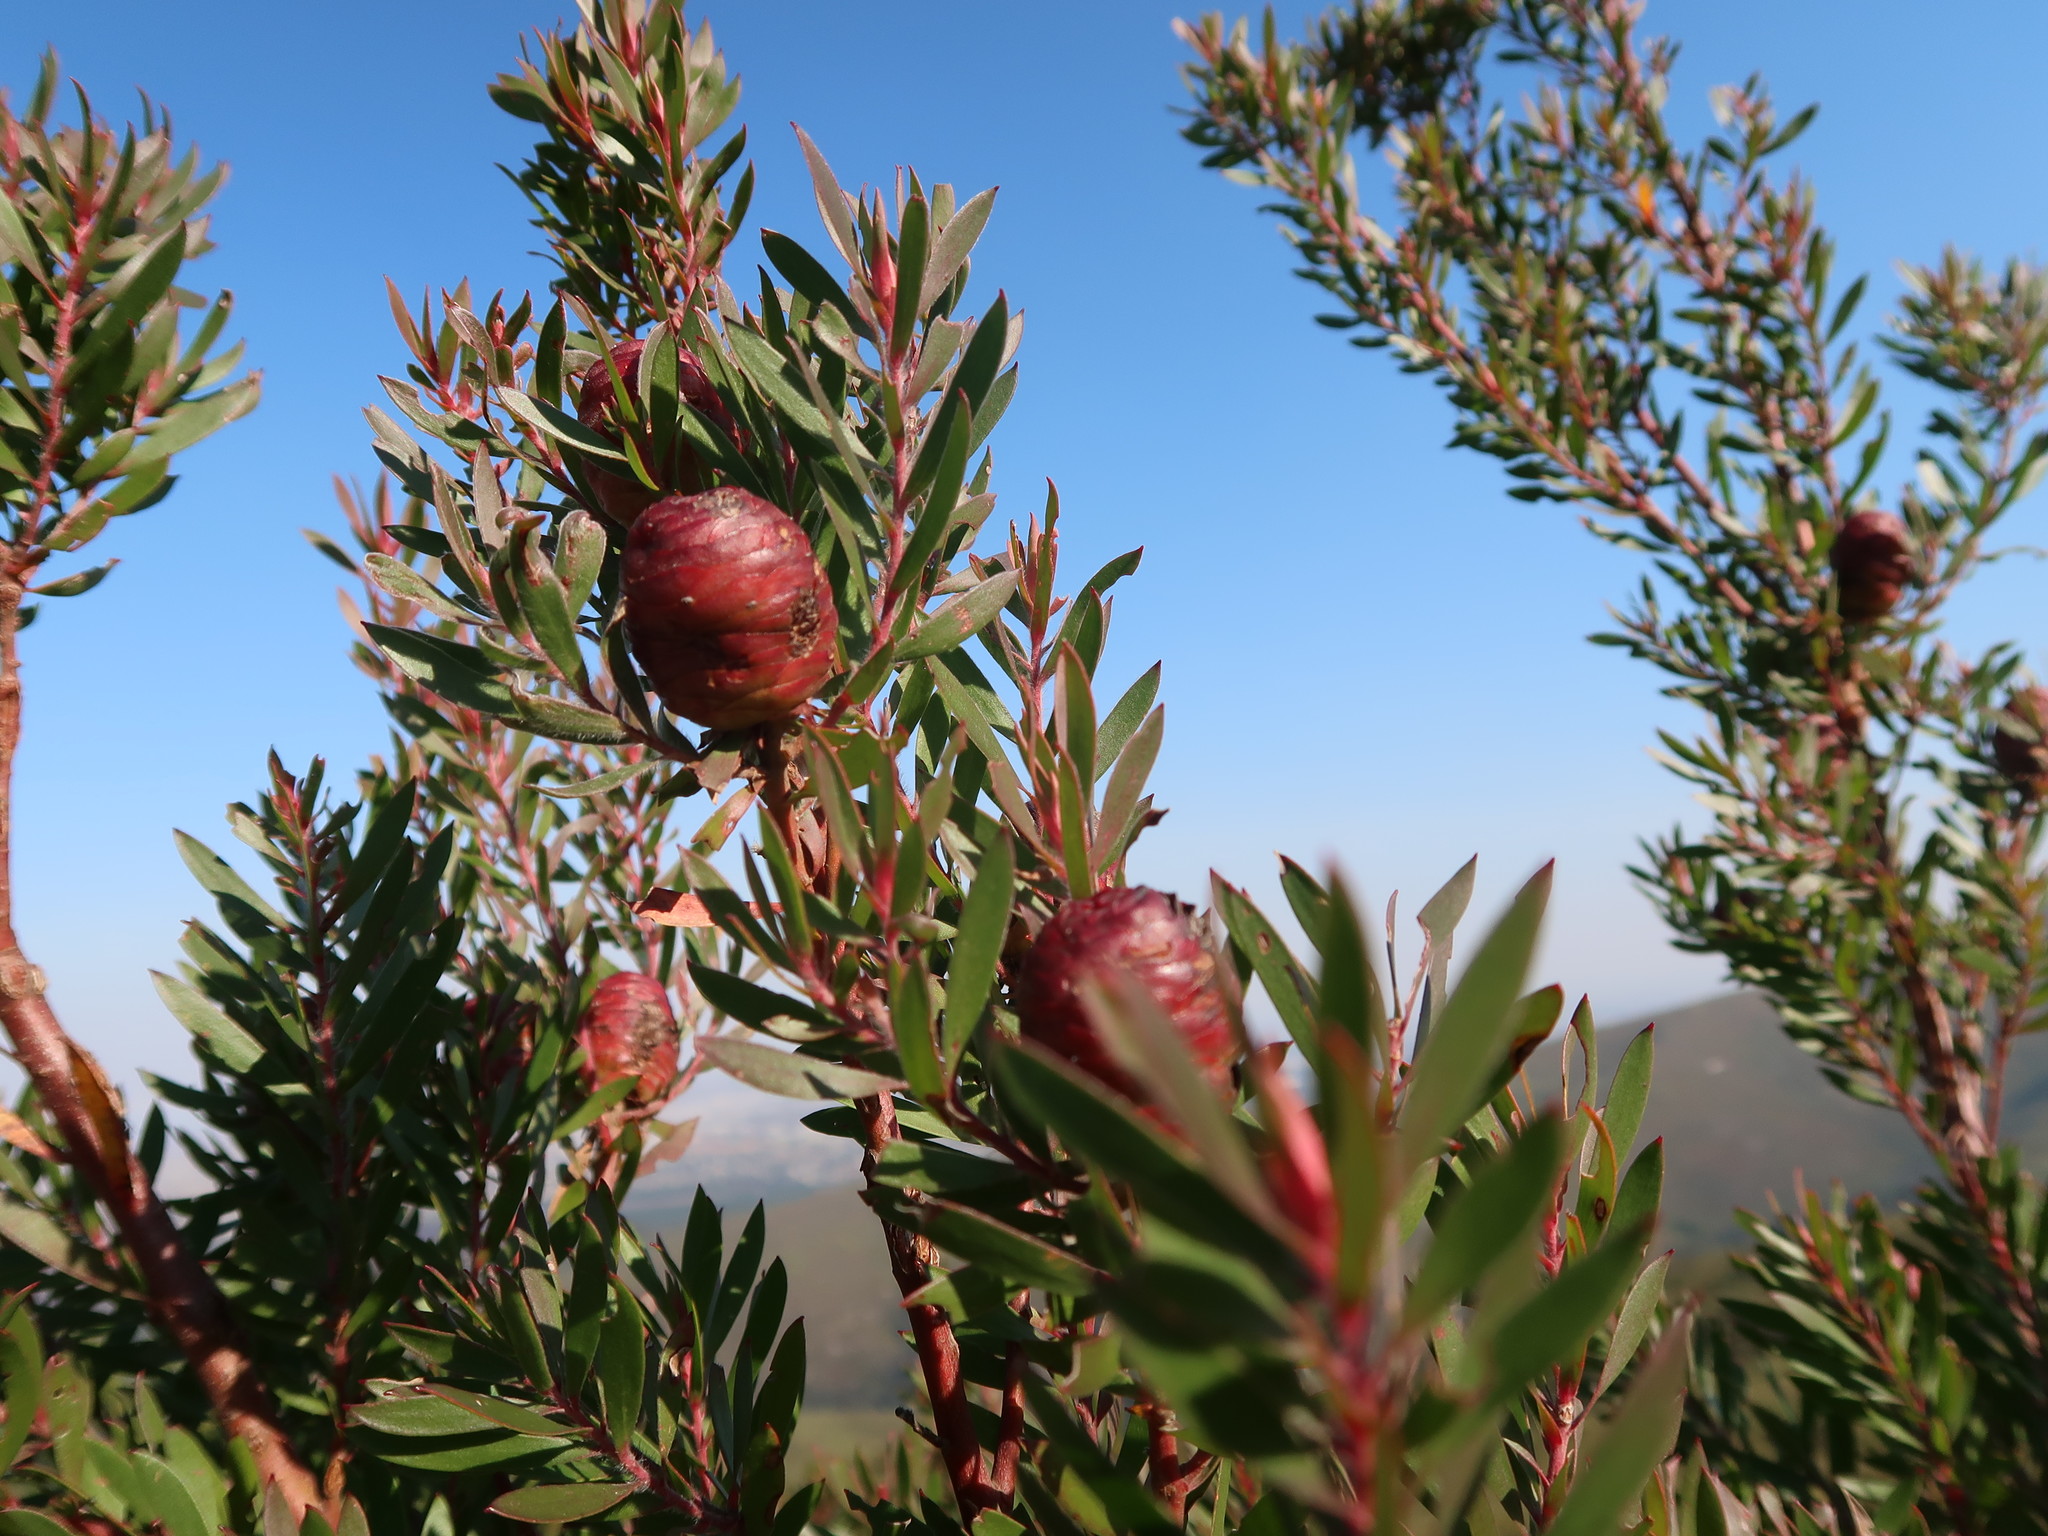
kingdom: Plantae
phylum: Tracheophyta
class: Magnoliopsida
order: Proteales
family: Proteaceae
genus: Leucadendron
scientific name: Leucadendron conicum
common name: Garden route conebush
